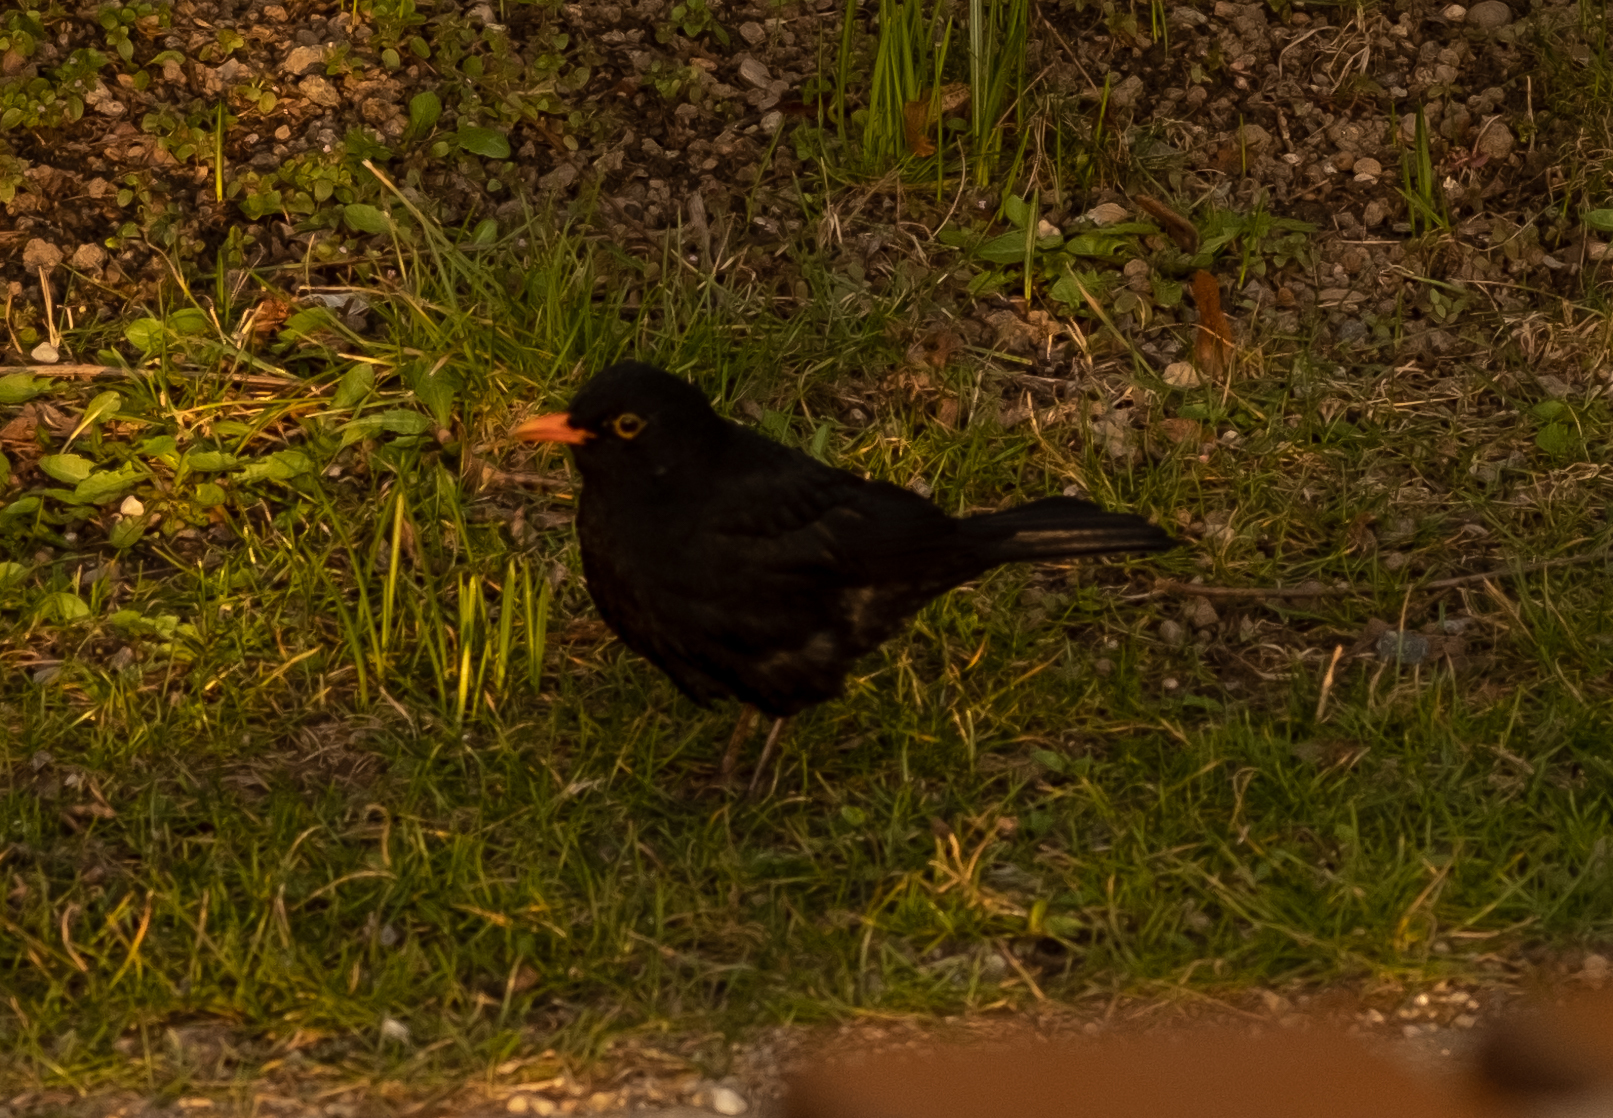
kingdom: Animalia
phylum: Chordata
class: Aves
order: Passeriformes
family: Turdidae
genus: Turdus
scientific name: Turdus merula
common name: Common blackbird
